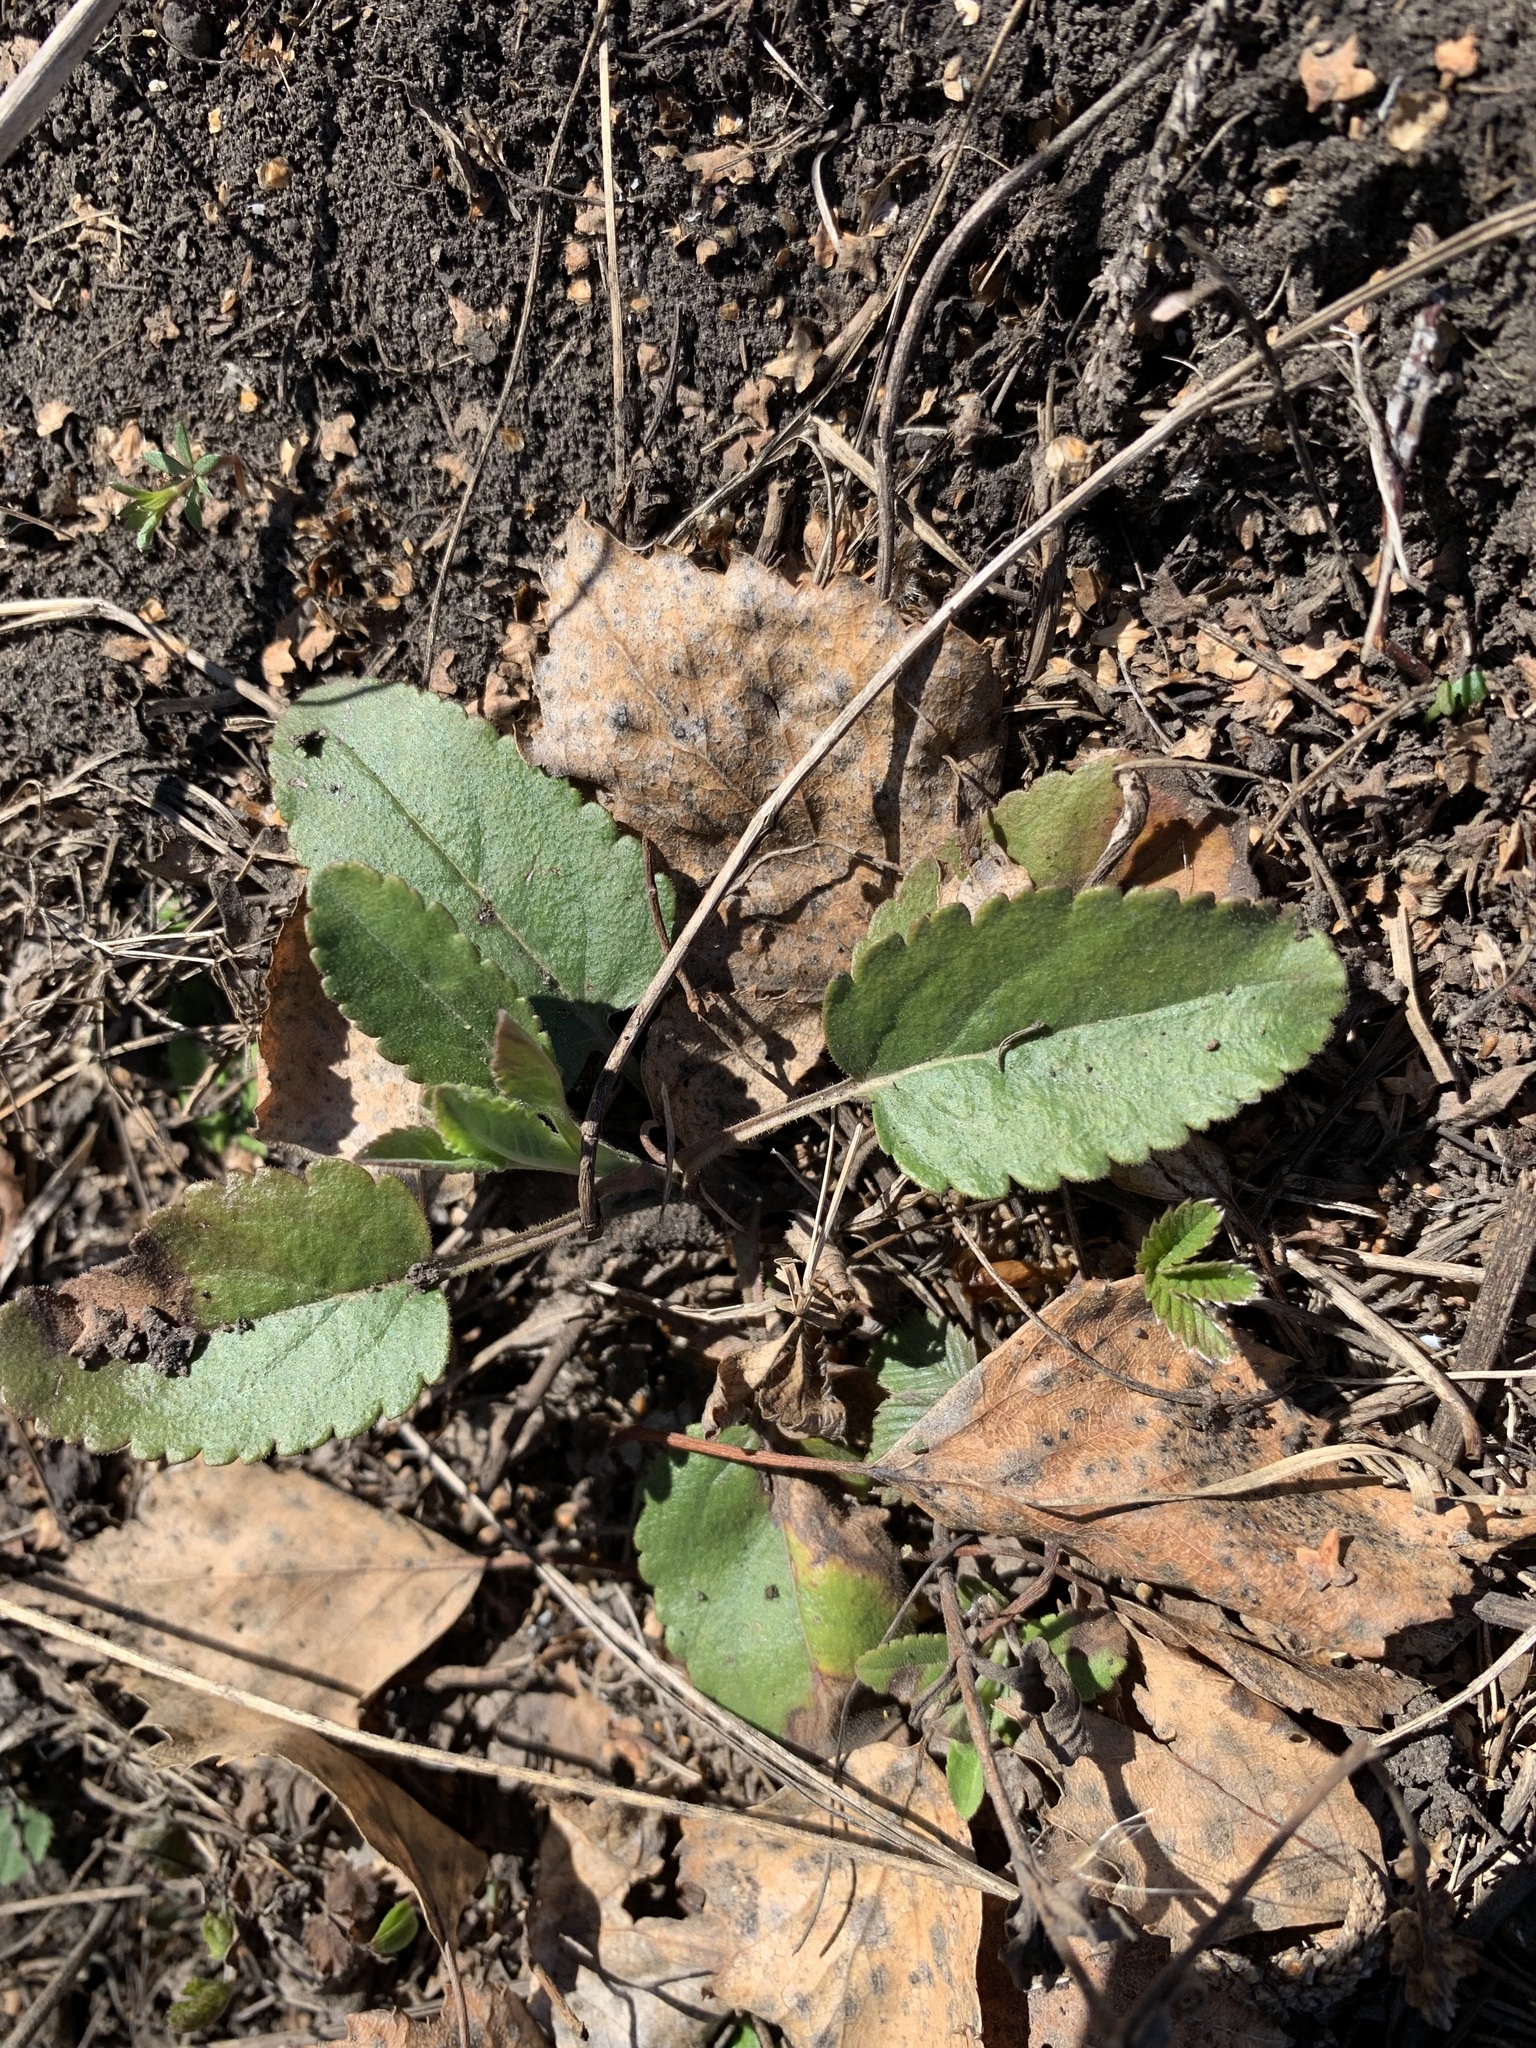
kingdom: Plantae
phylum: Tracheophyta
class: Magnoliopsida
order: Lamiales
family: Plantaginaceae
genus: Veronica
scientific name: Veronica spicata
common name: Spiked speedwell
